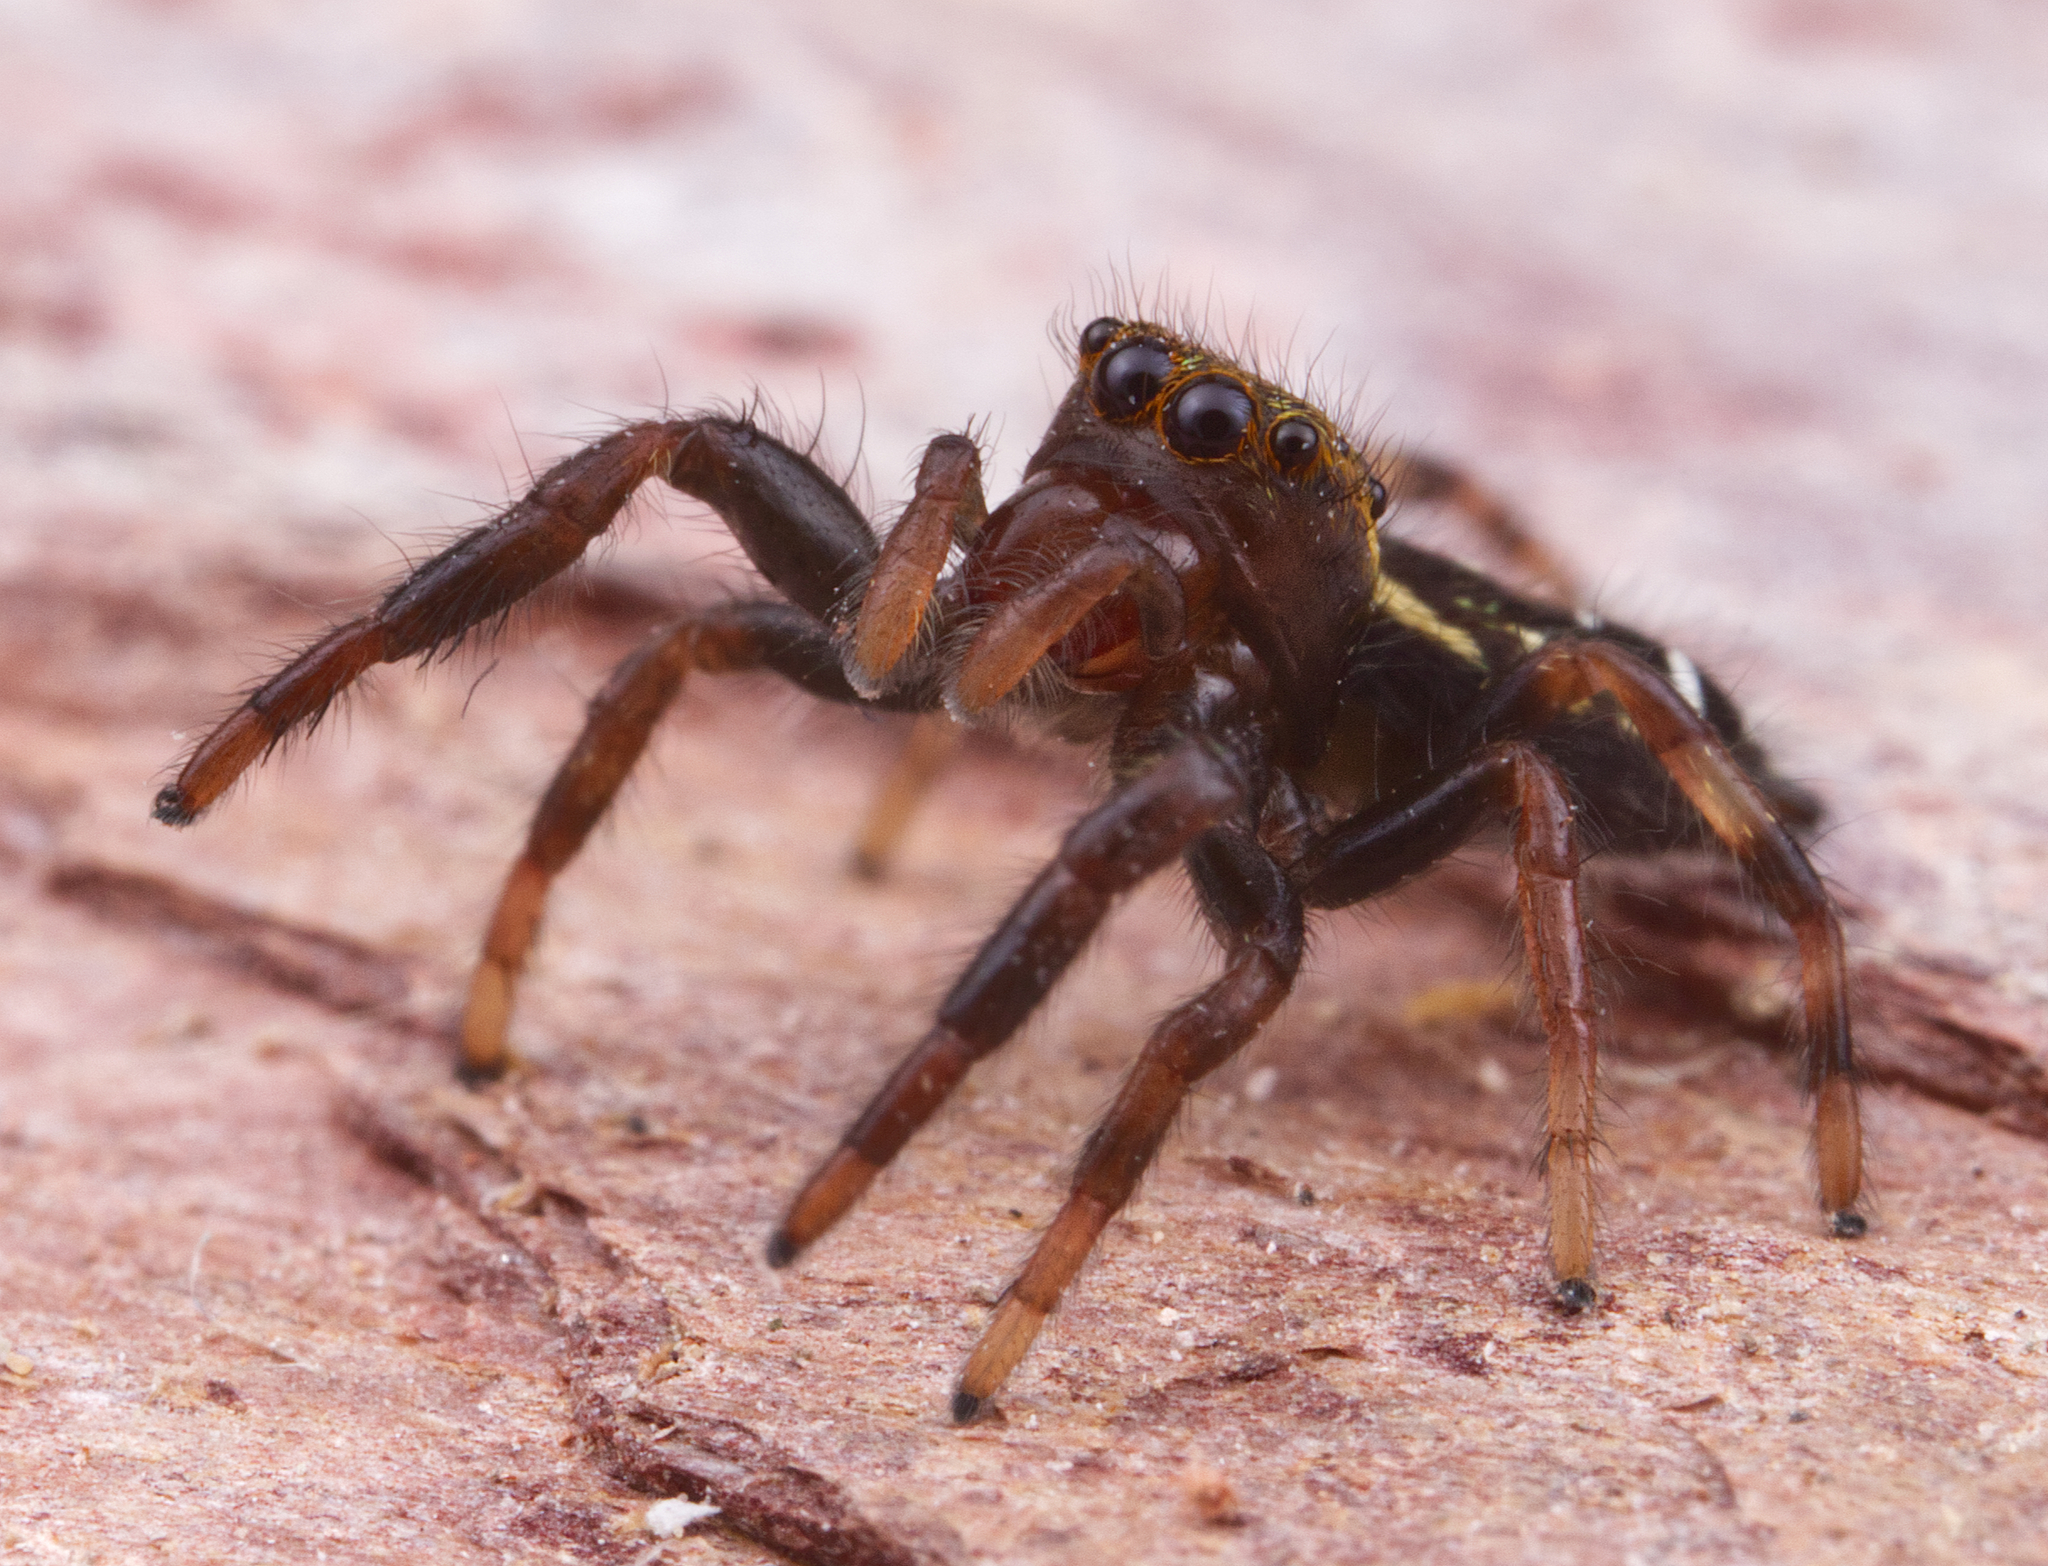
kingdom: Animalia
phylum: Arthropoda
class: Arachnida
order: Araneae
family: Salticidae
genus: Paraphidippus
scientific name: Paraphidippus aurantius
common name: Jumping spiders
